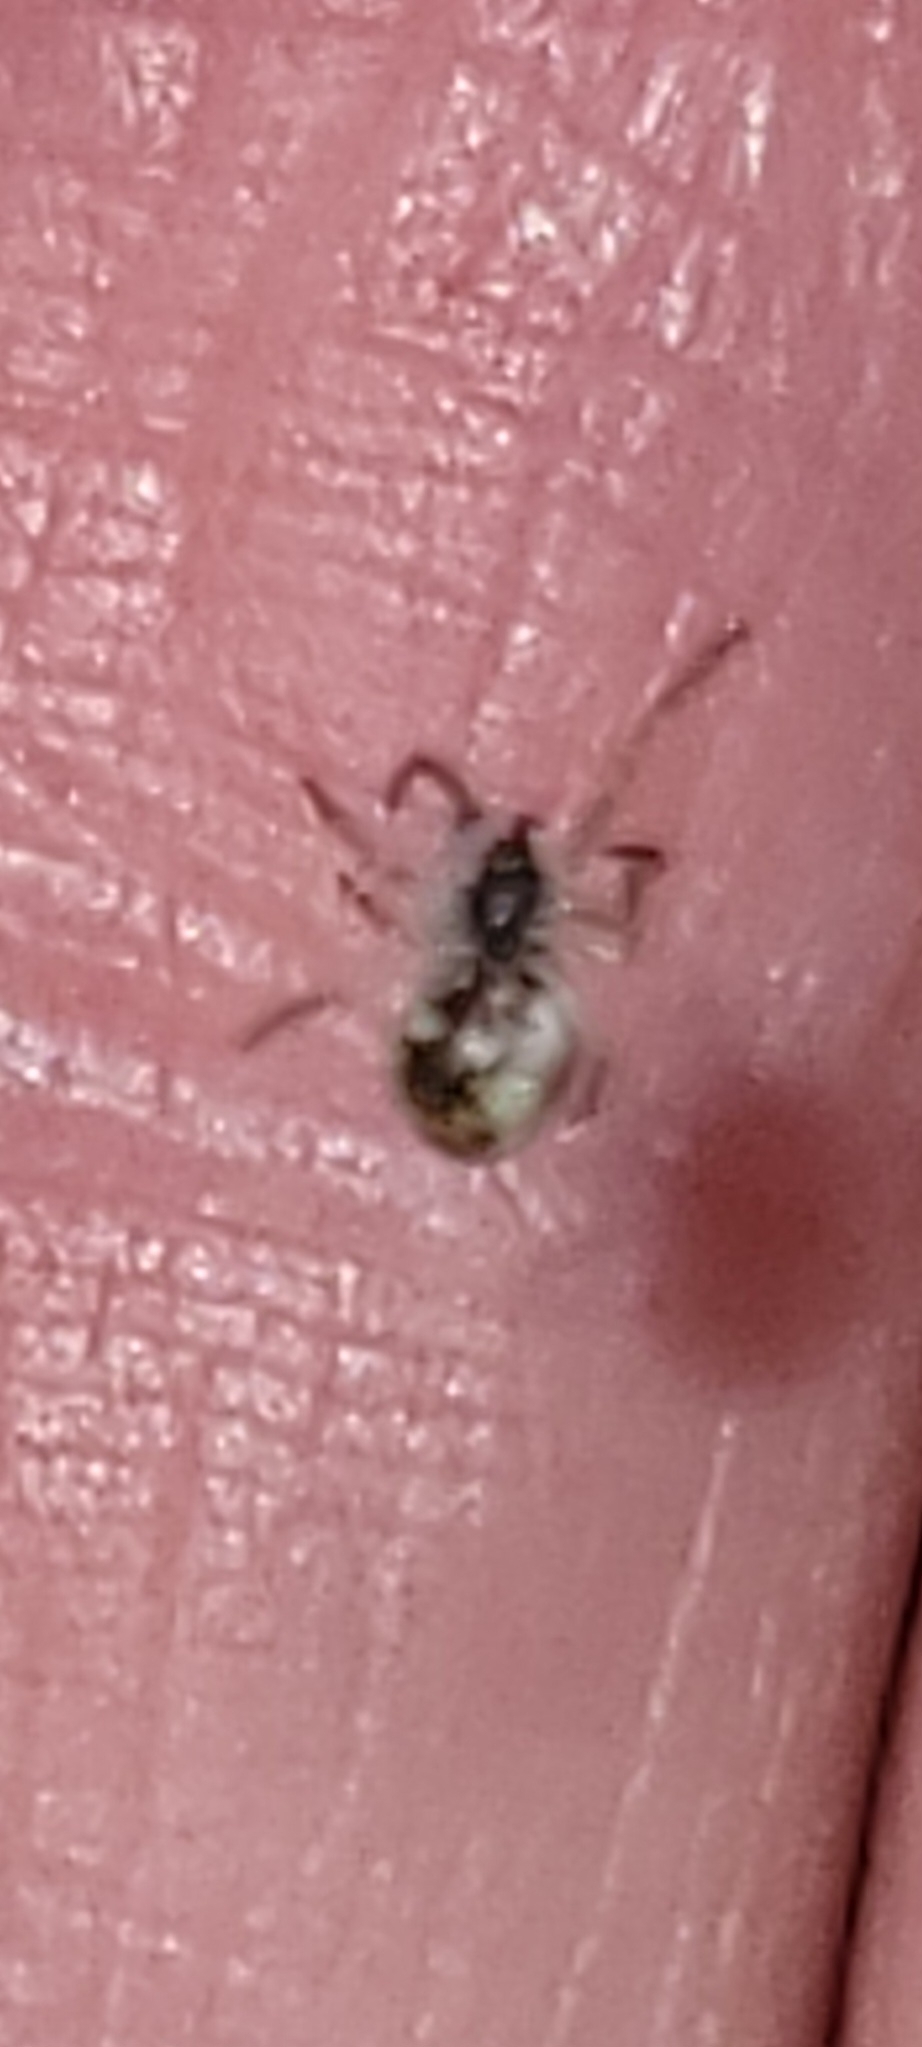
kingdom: Animalia
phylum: Arthropoda
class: Arachnida
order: Araneae
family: Araneidae
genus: Cyclosa
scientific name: Cyclosa conica
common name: Conical trashline orbweaver
